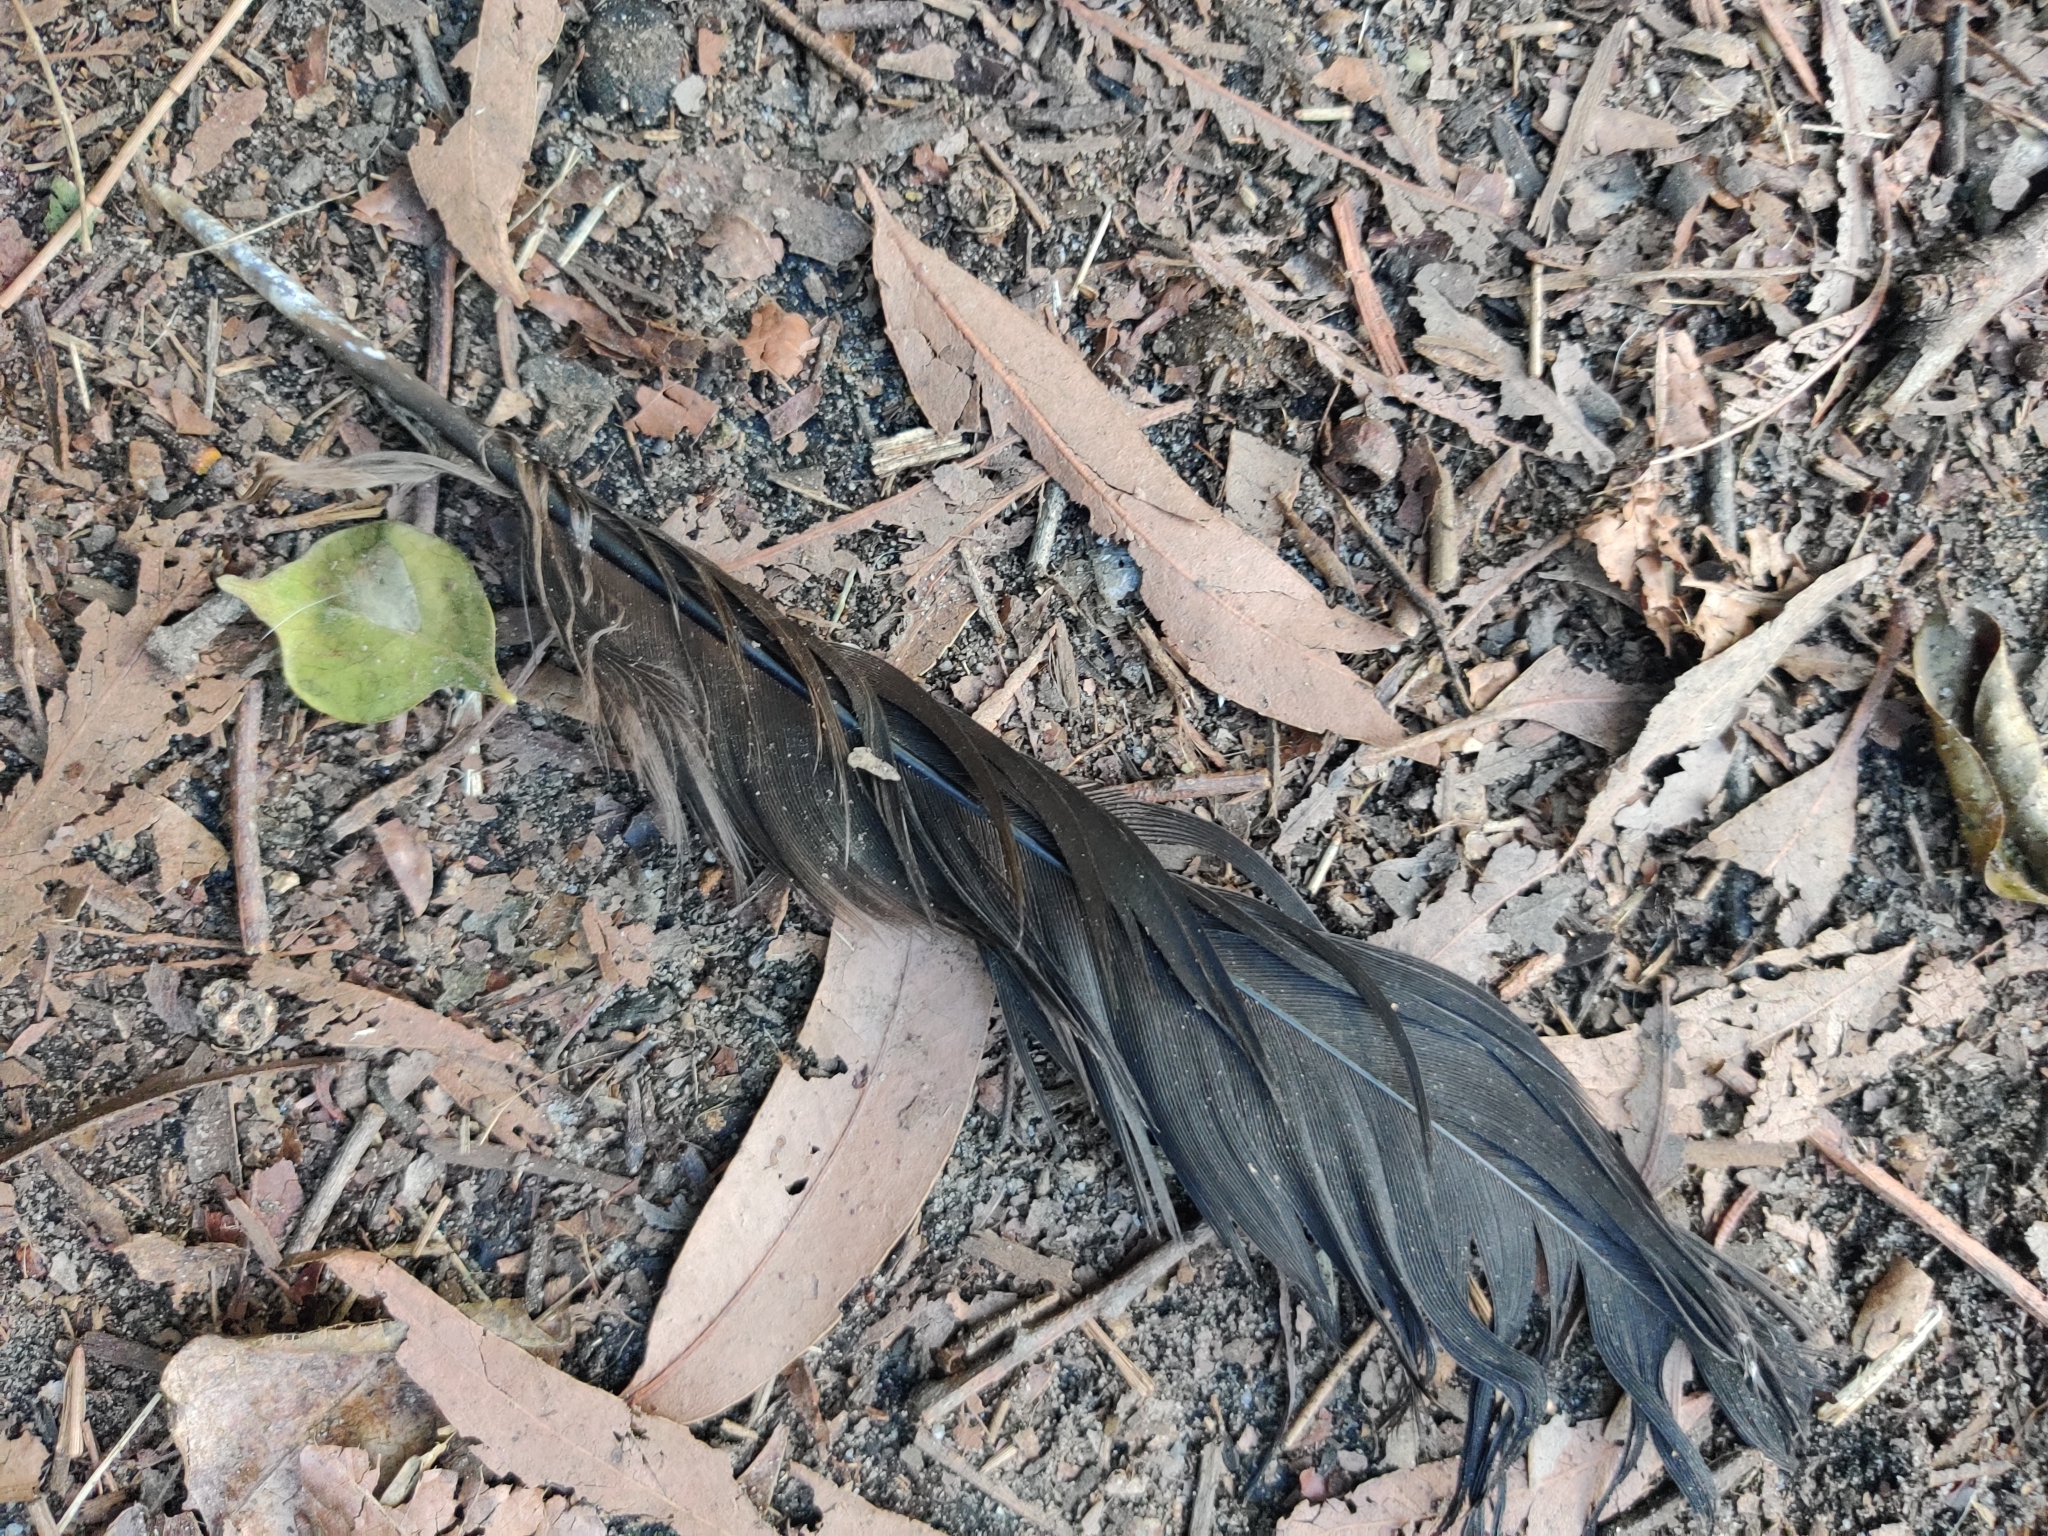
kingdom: Animalia
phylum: Chordata
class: Aves
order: Galliformes
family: Megapodiidae
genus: Alectura
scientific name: Alectura lathami
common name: Australian brushturkey
